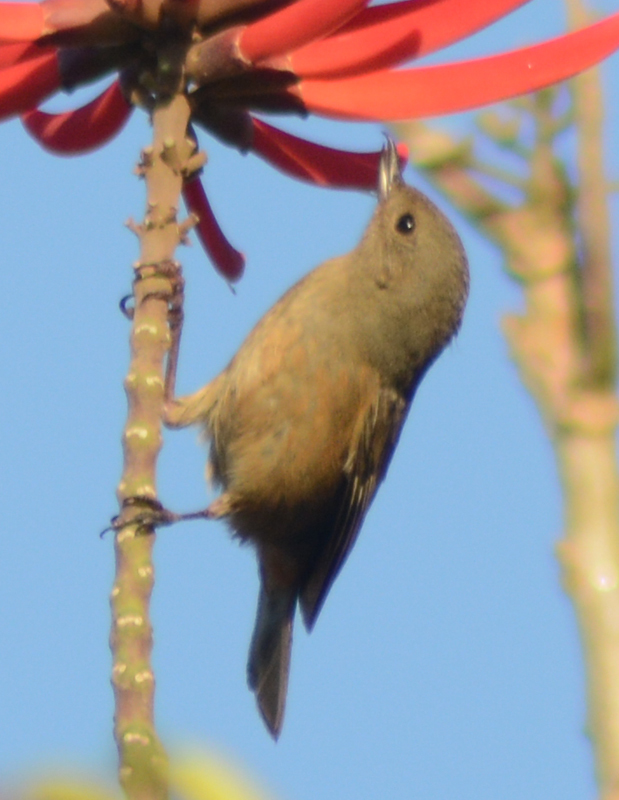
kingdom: Animalia
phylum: Chordata
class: Aves
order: Passeriformes
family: Thraupidae
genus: Diglossa
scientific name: Diglossa baritula
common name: Cinnamon-bellied flowerpiercer
